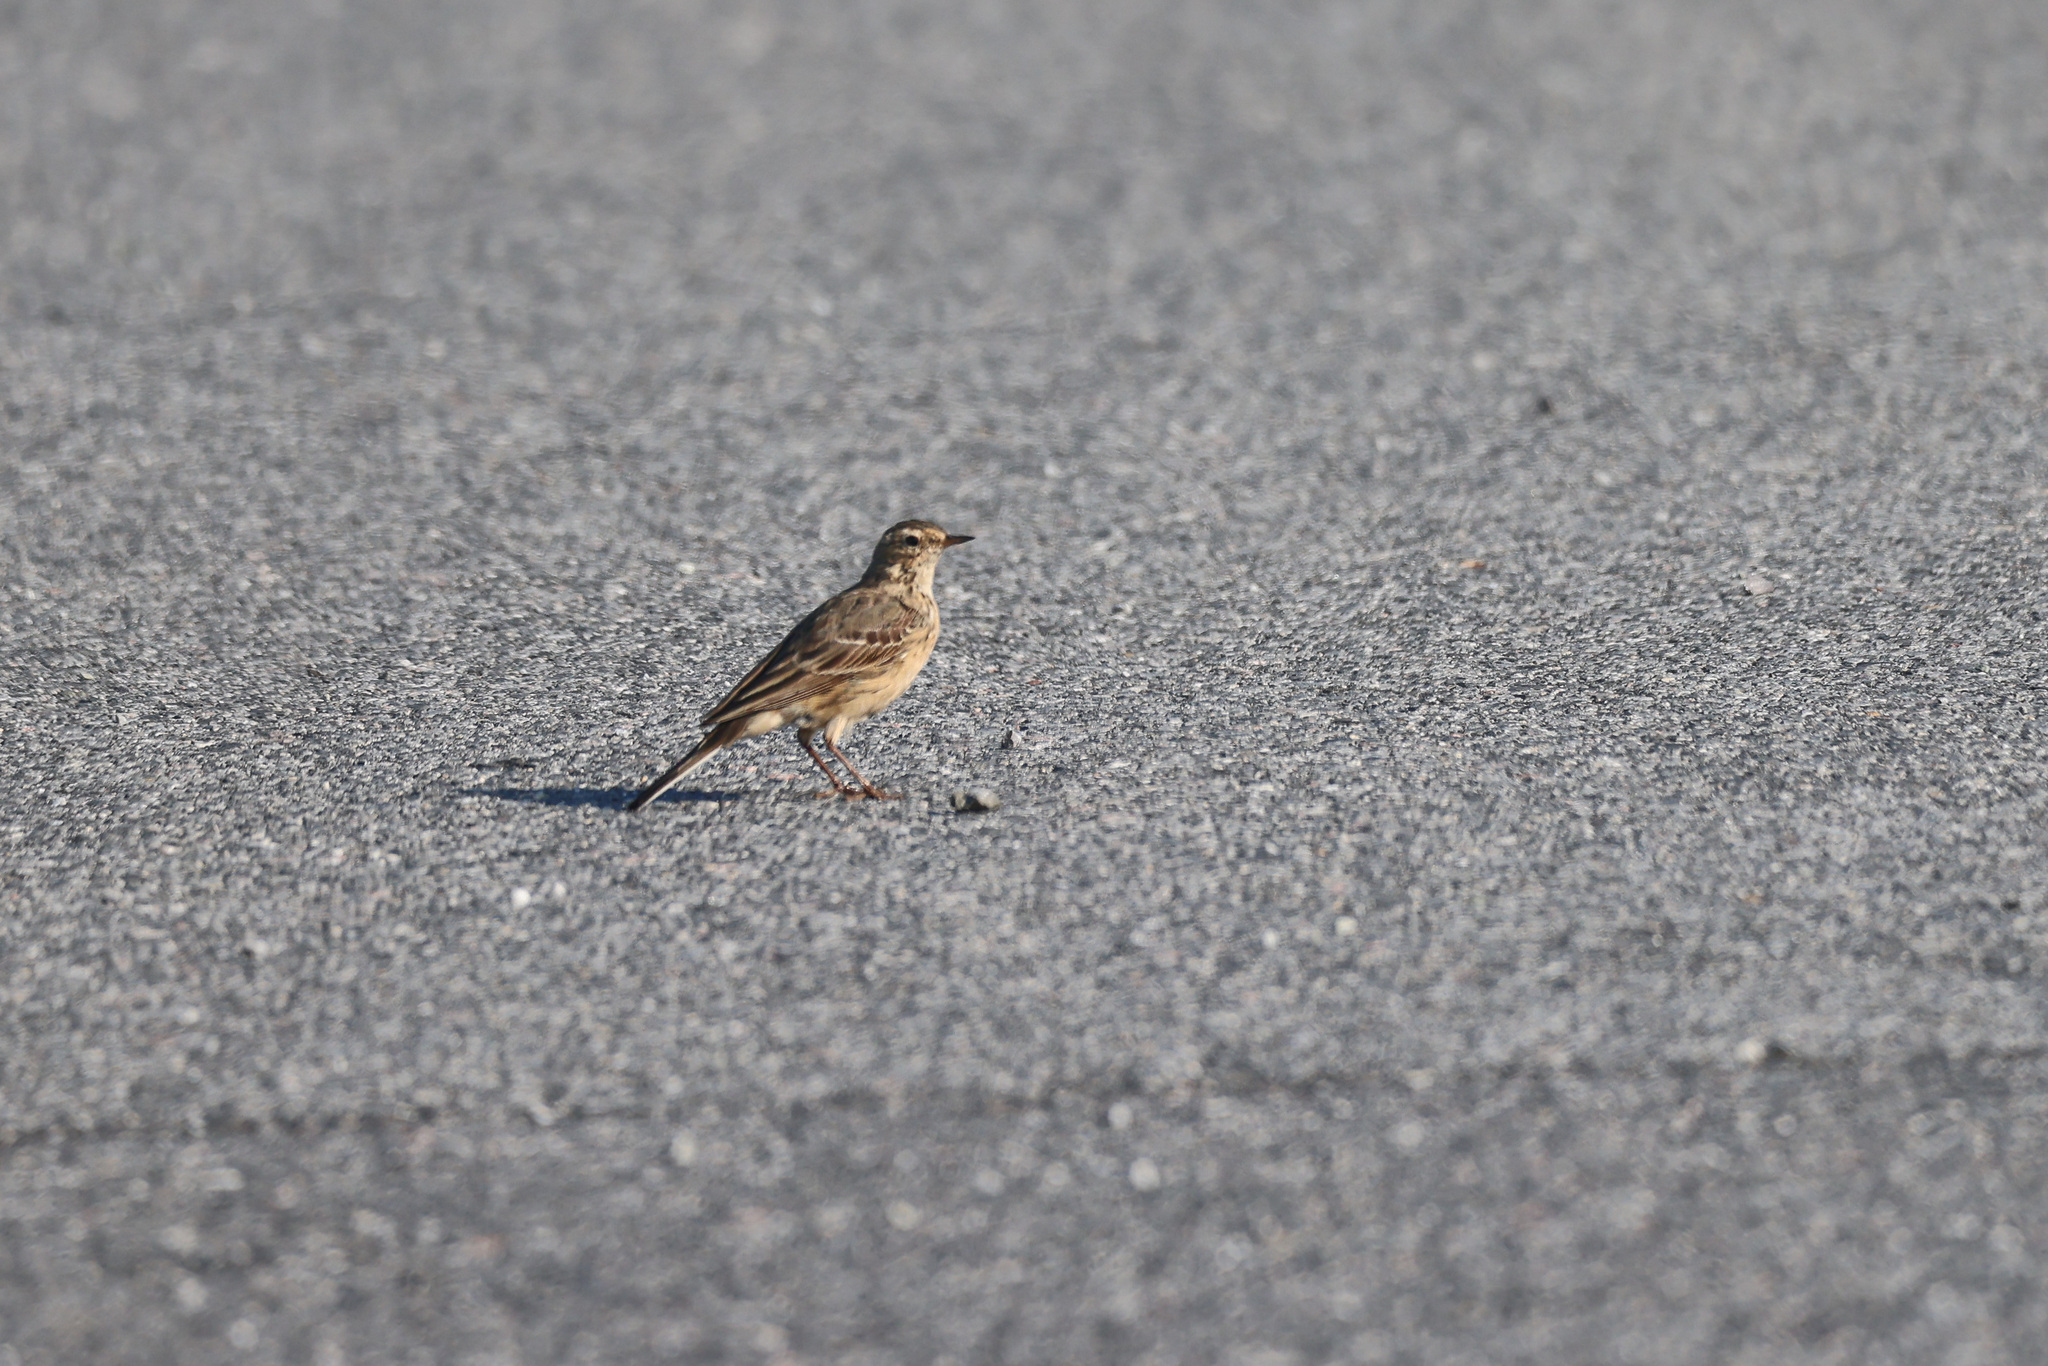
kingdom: Animalia
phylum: Chordata
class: Aves
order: Passeriformes
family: Motacillidae
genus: Anthus
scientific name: Anthus rubescens
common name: Buff-bellied pipit
